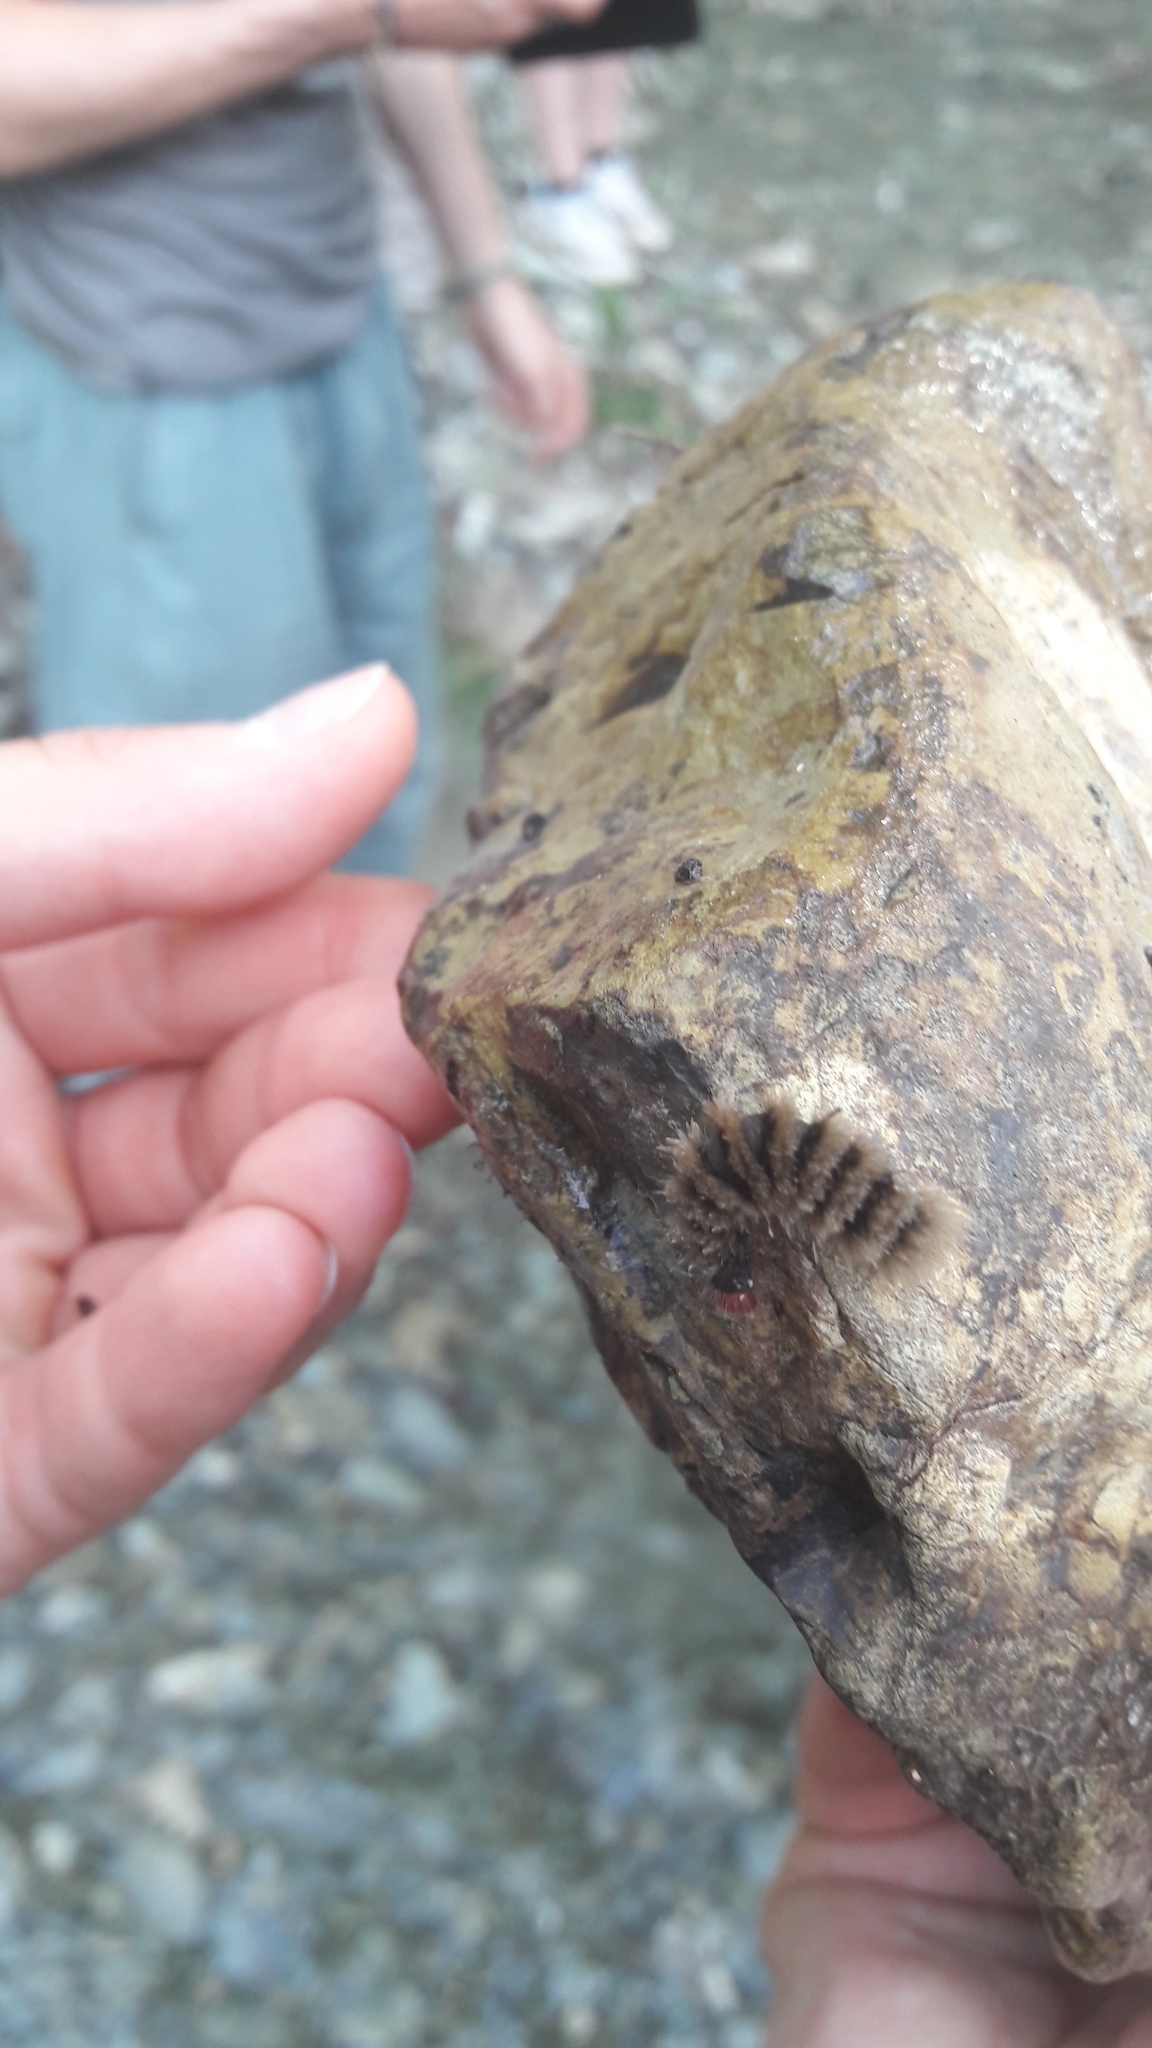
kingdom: Animalia
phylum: Arthropoda
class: Insecta
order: Lepidoptera
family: Erebidae
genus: Amata
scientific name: Amata phegea
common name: Nine-spotted
